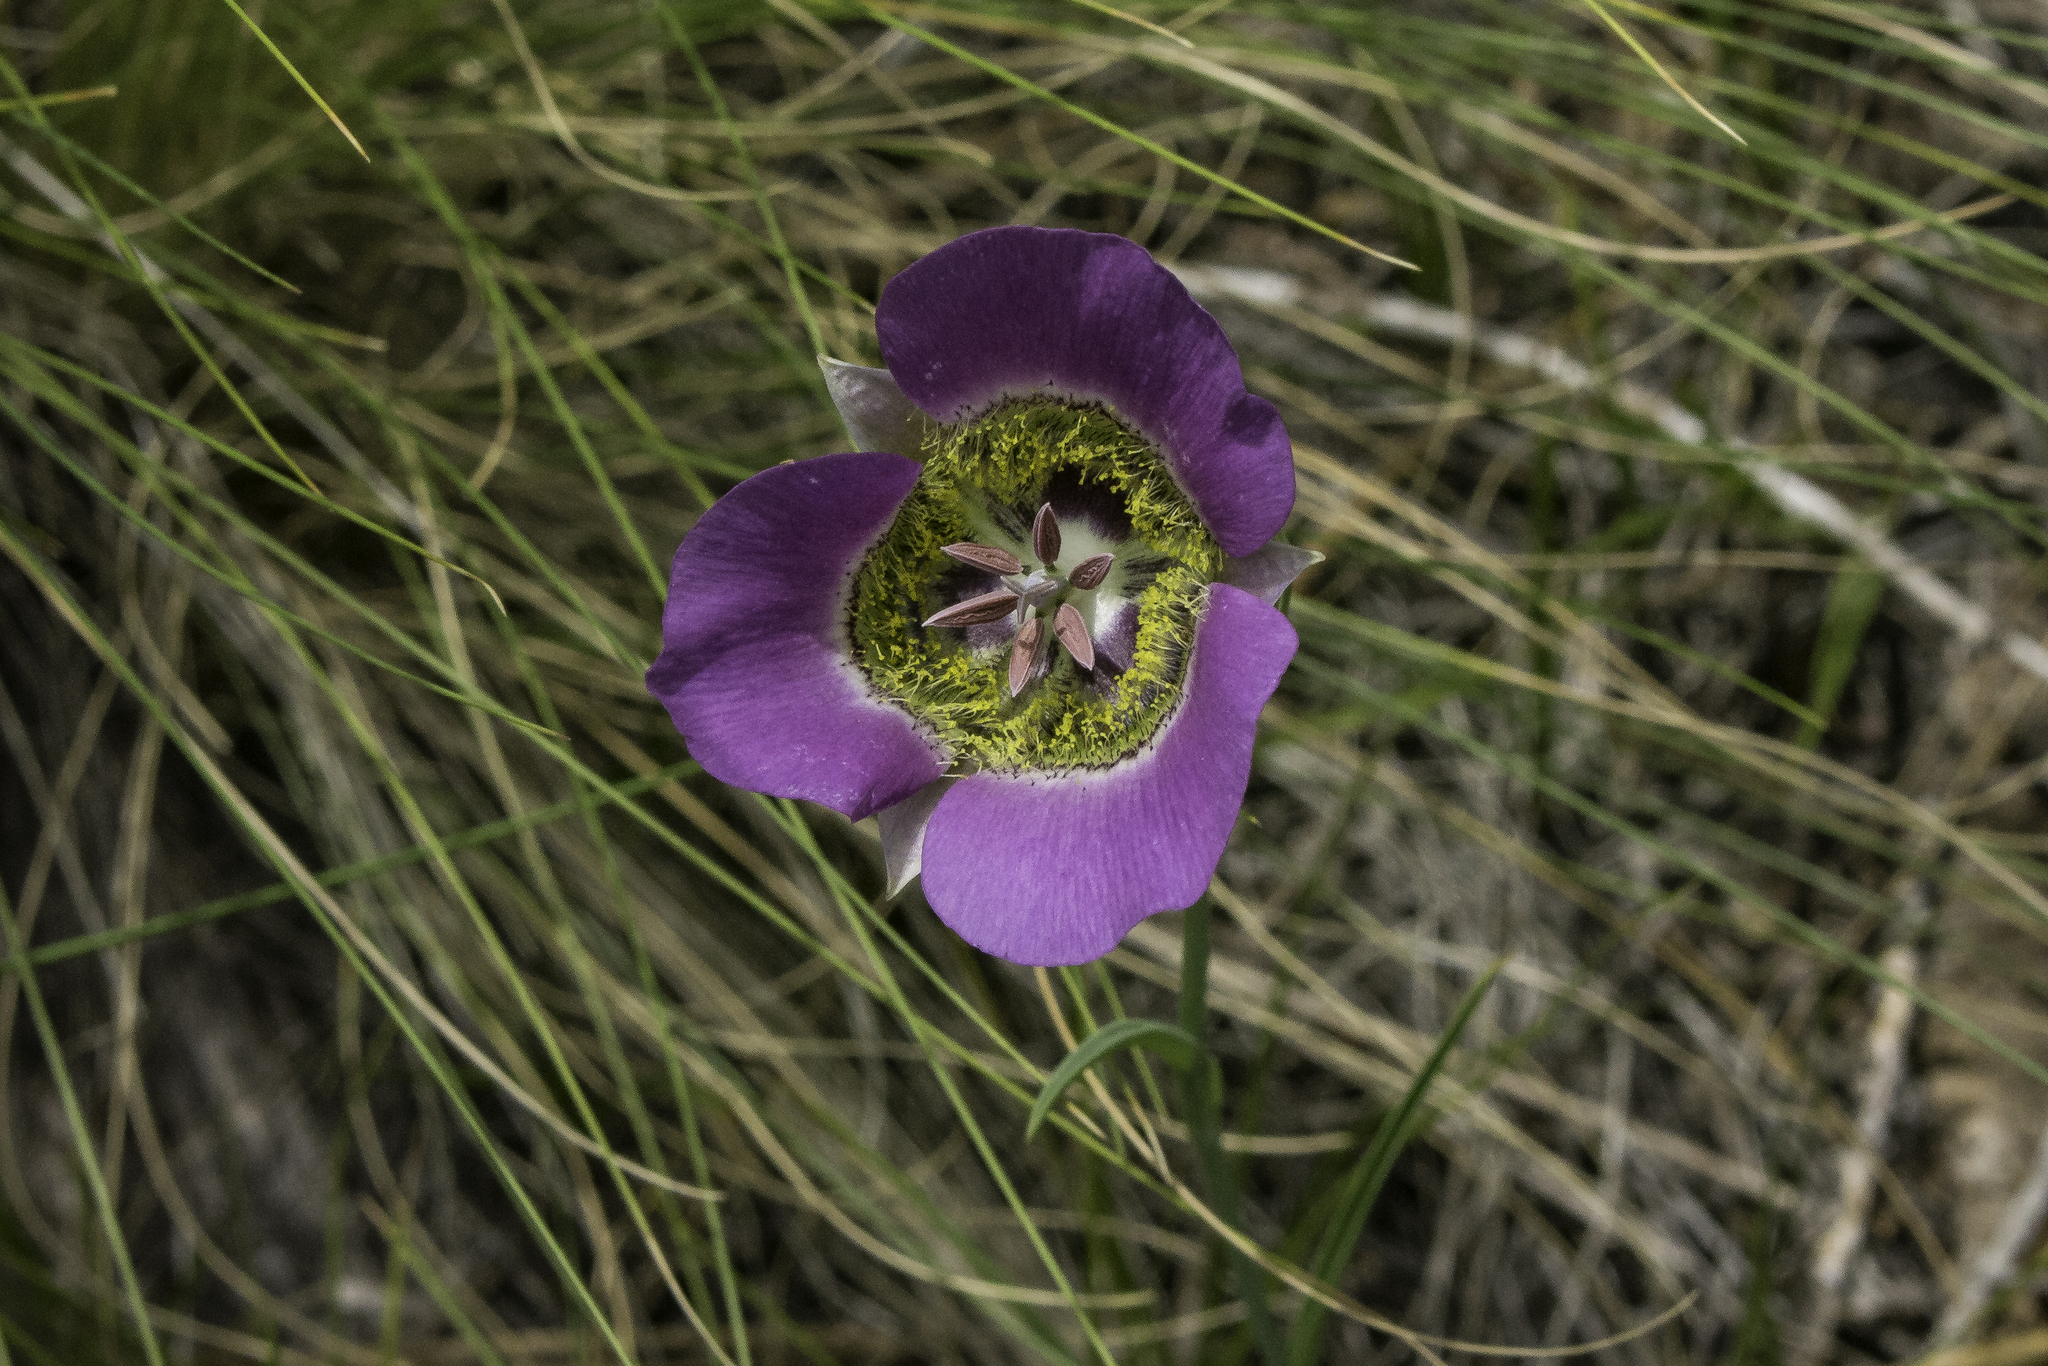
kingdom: Plantae
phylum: Tracheophyta
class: Liliopsida
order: Liliales
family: Liliaceae
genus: Calochortus
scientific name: Calochortus gunnisonii
